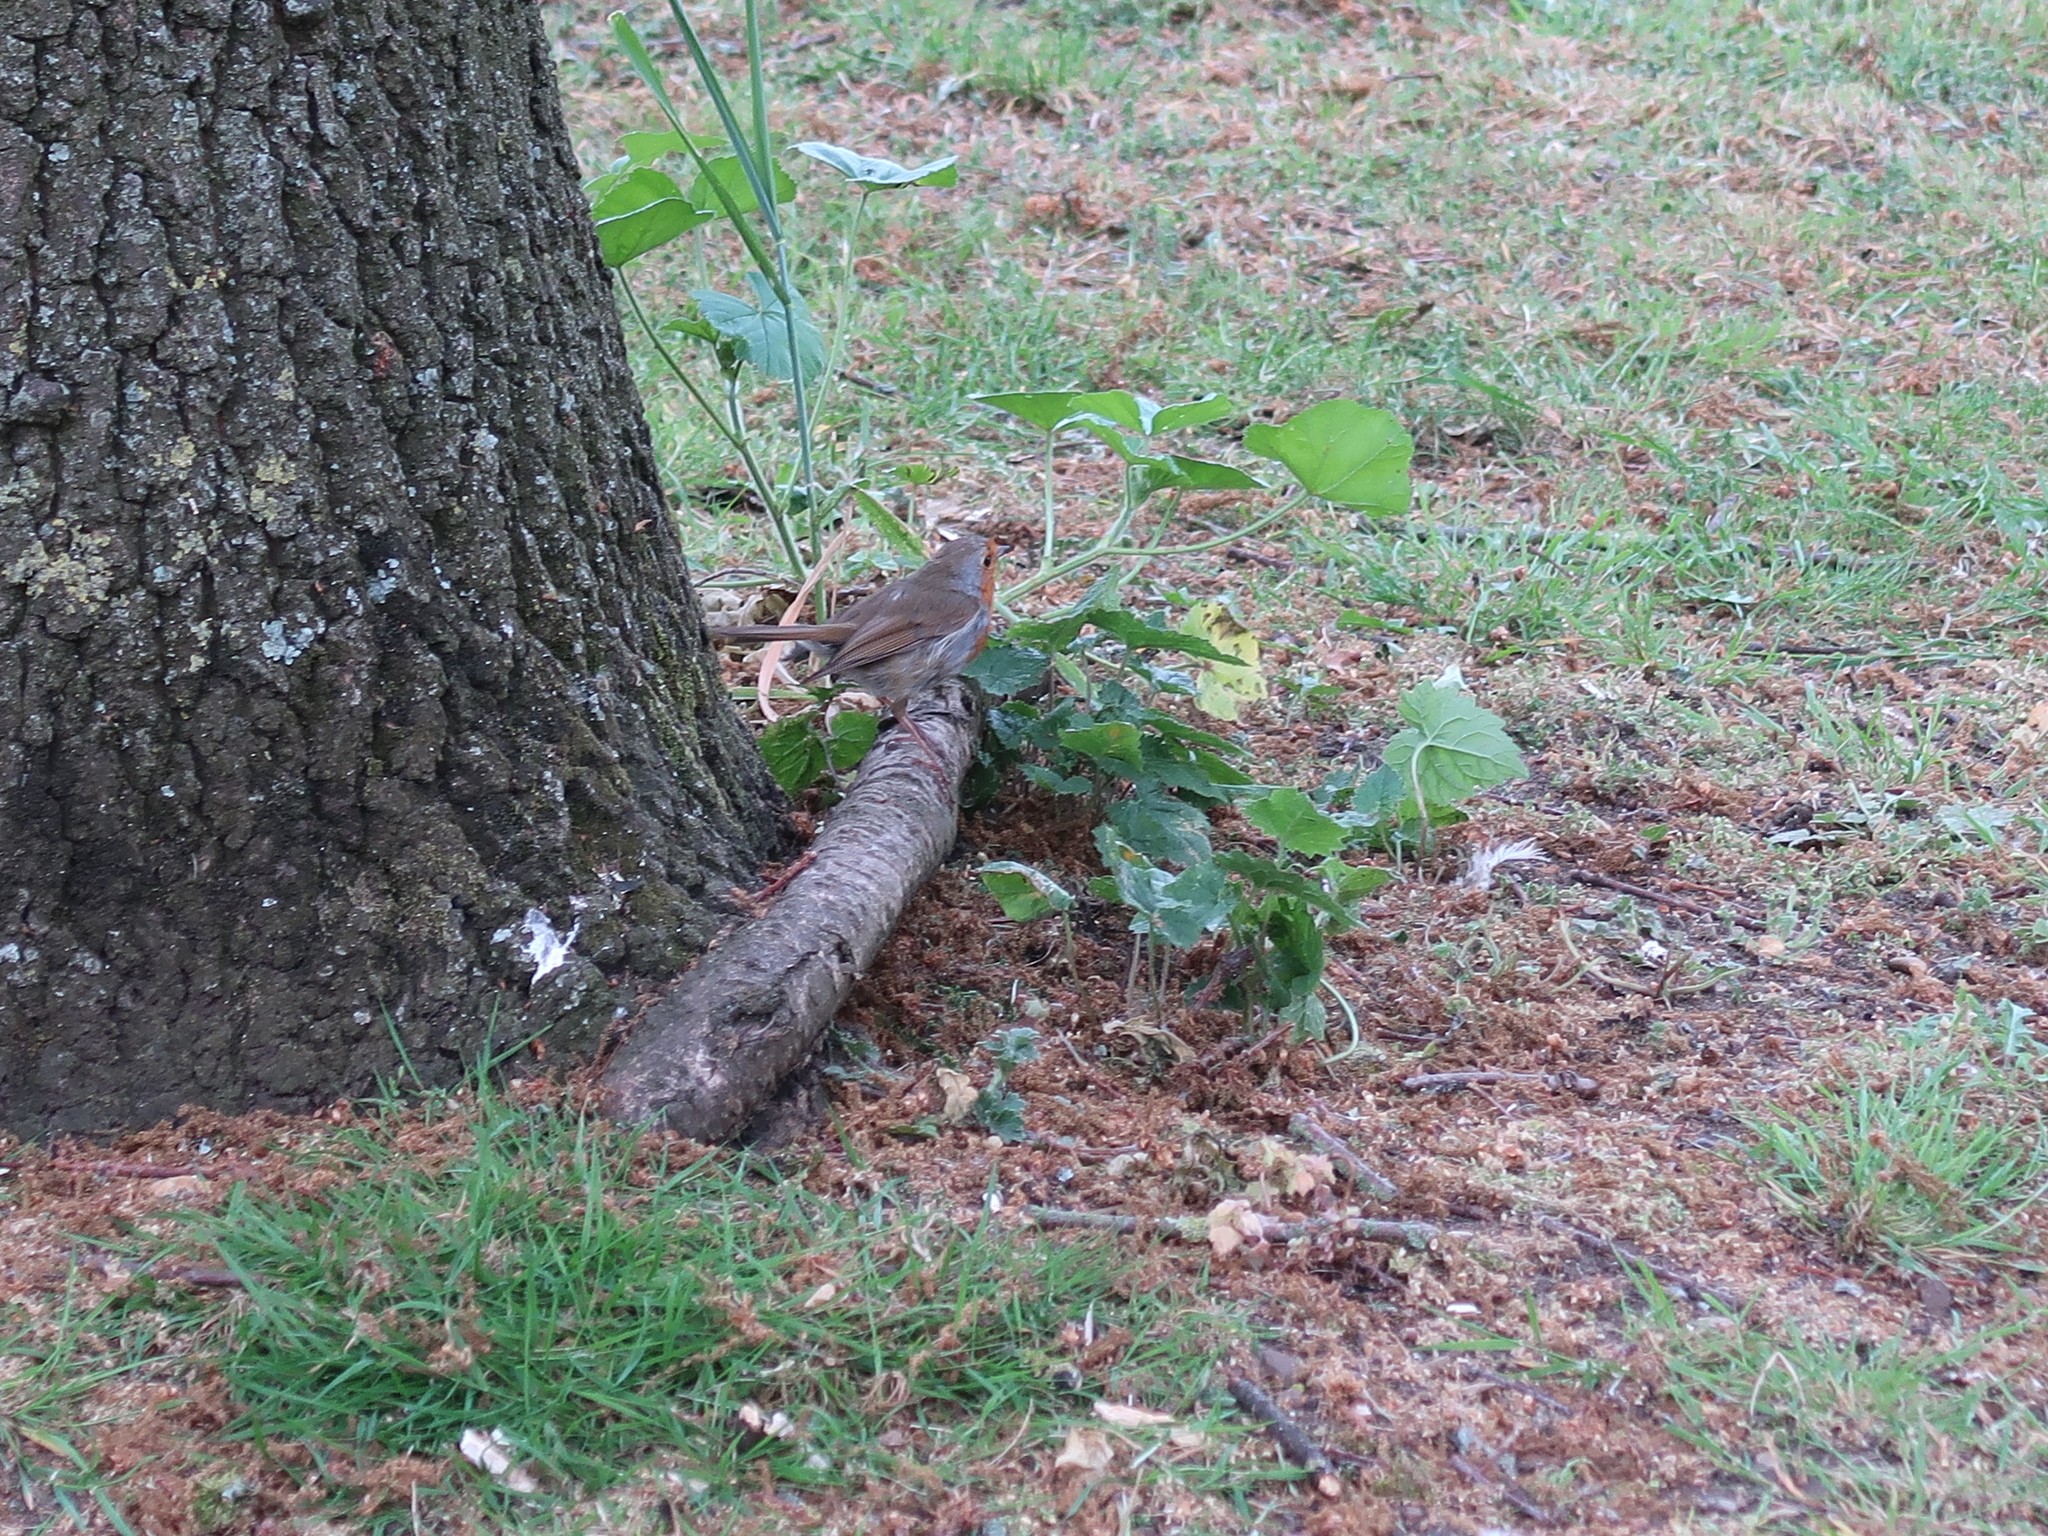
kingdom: Animalia
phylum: Chordata
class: Aves
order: Passeriformes
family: Muscicapidae
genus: Erithacus
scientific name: Erithacus rubecula
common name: European robin
